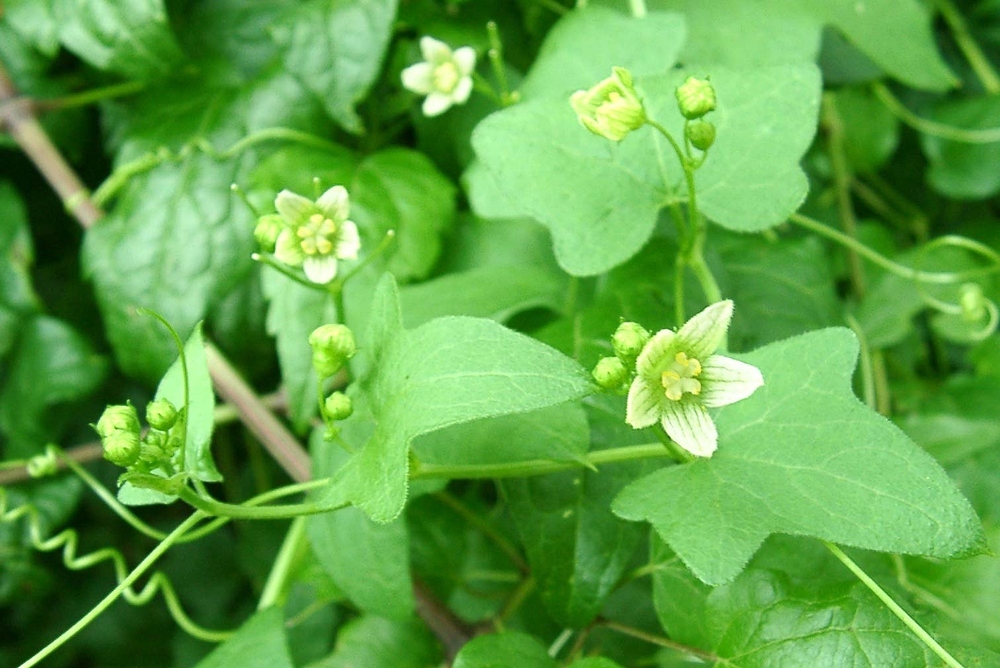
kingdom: Plantae
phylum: Tracheophyta
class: Magnoliopsida
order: Cucurbitales
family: Cucurbitaceae
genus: Bryonia
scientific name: Bryonia cretica
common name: Cretan bryony
